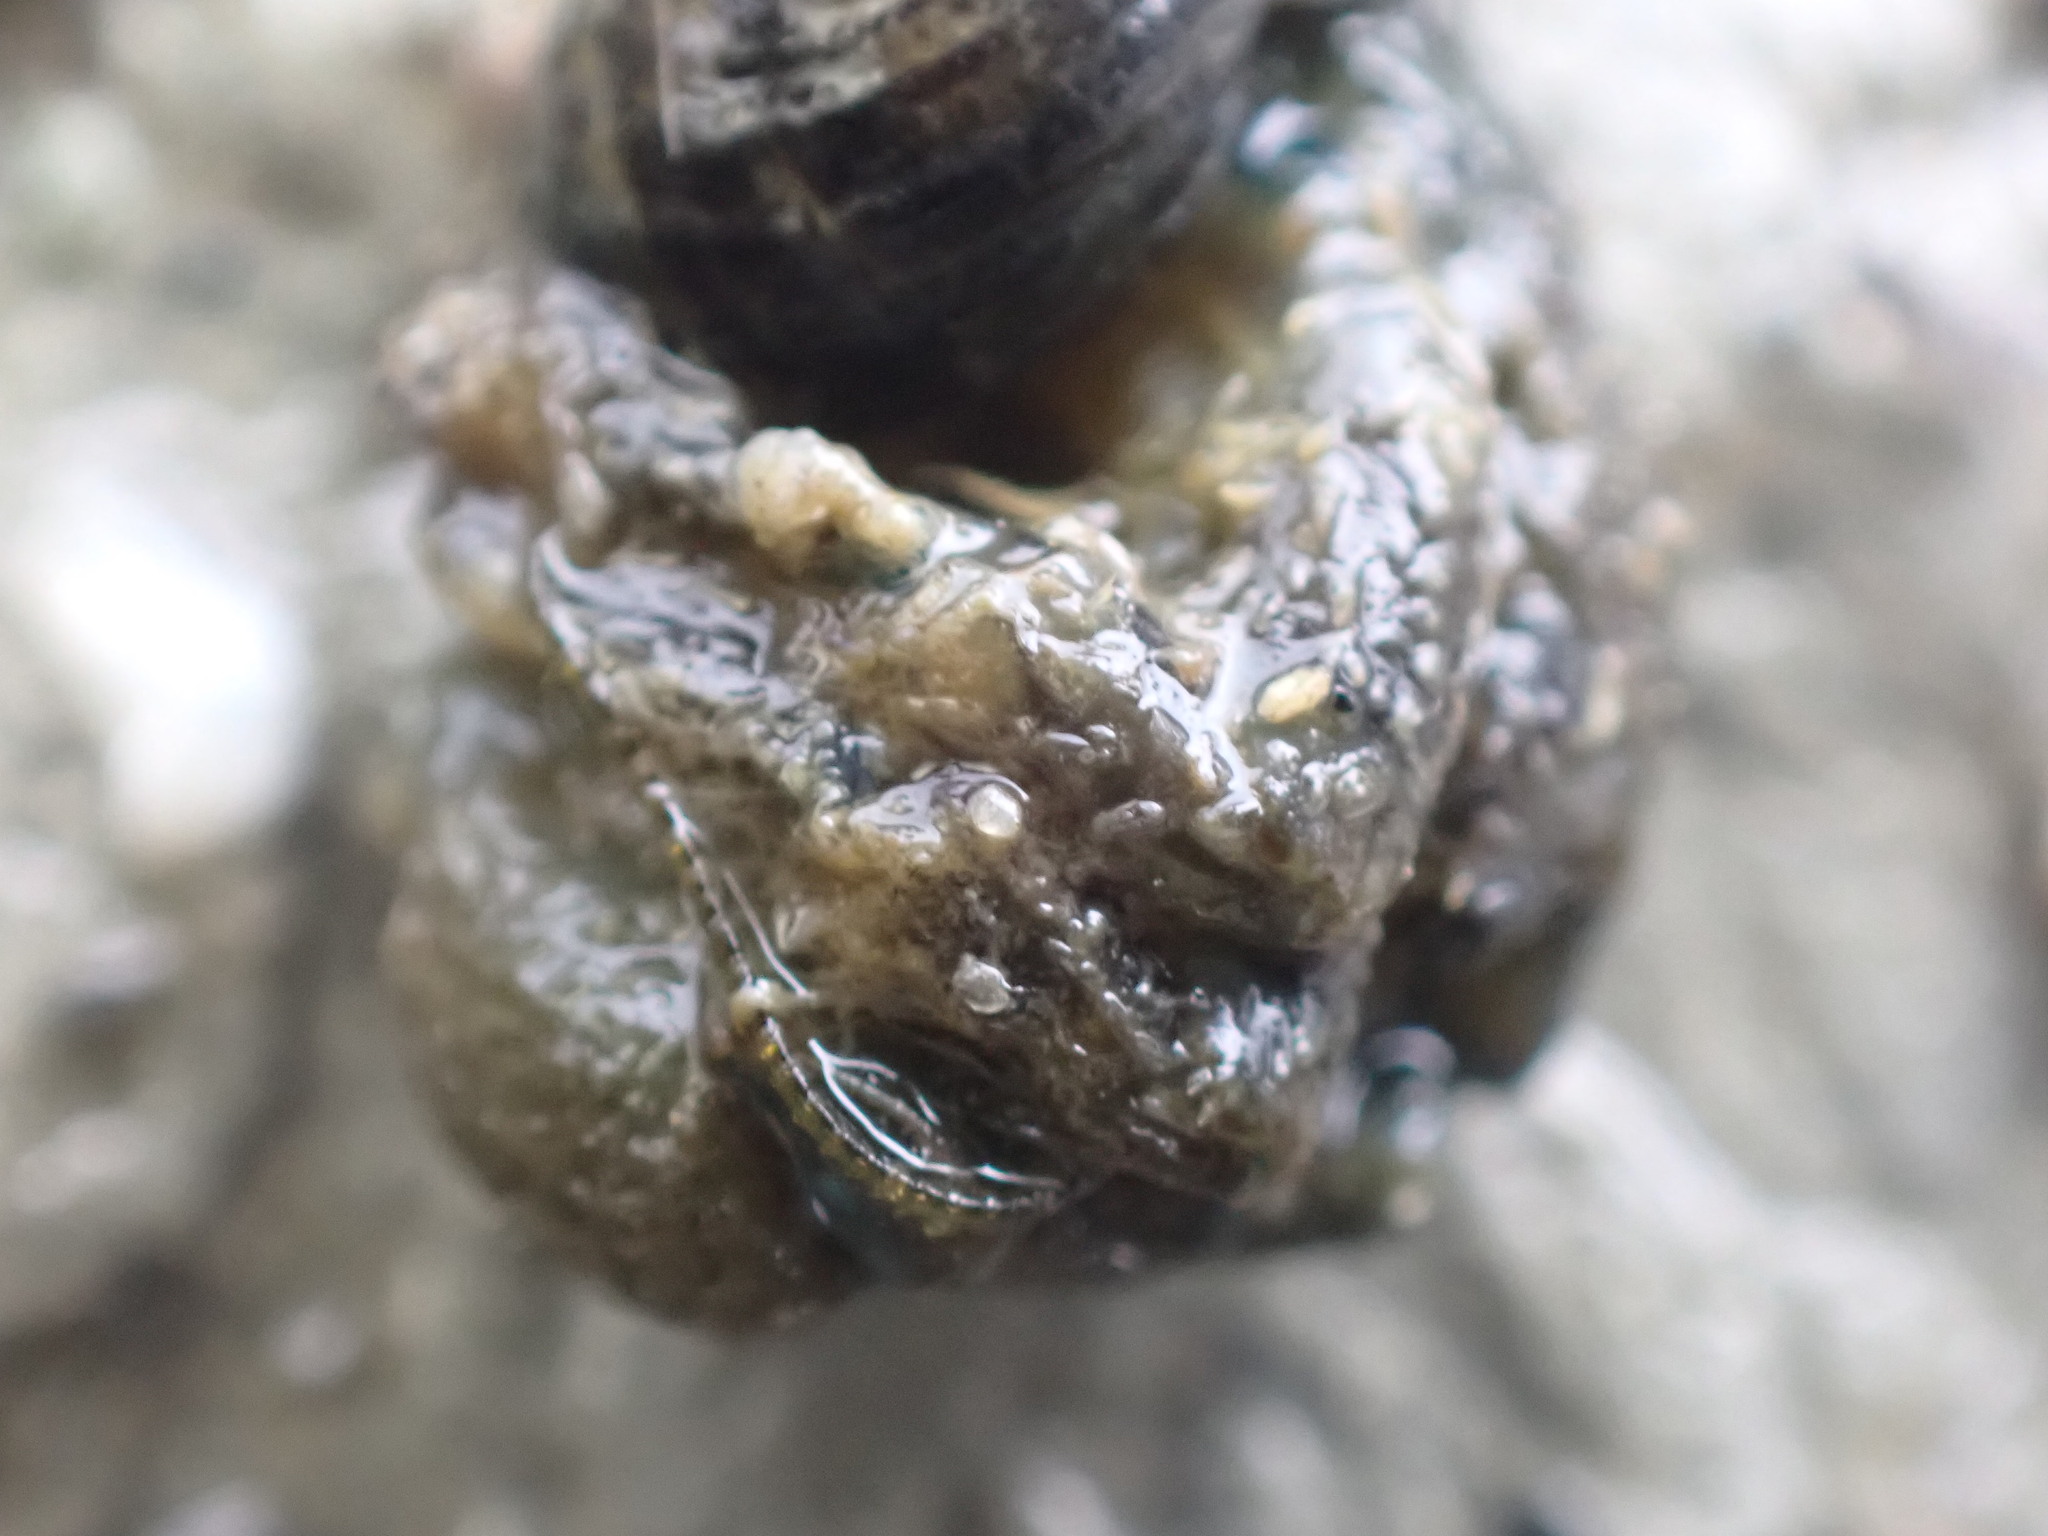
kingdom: Animalia
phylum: Arthropoda
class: Malacostraca
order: Decapoda
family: Paguridae
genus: Pagurus
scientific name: Pagurus hirsutiusculus
